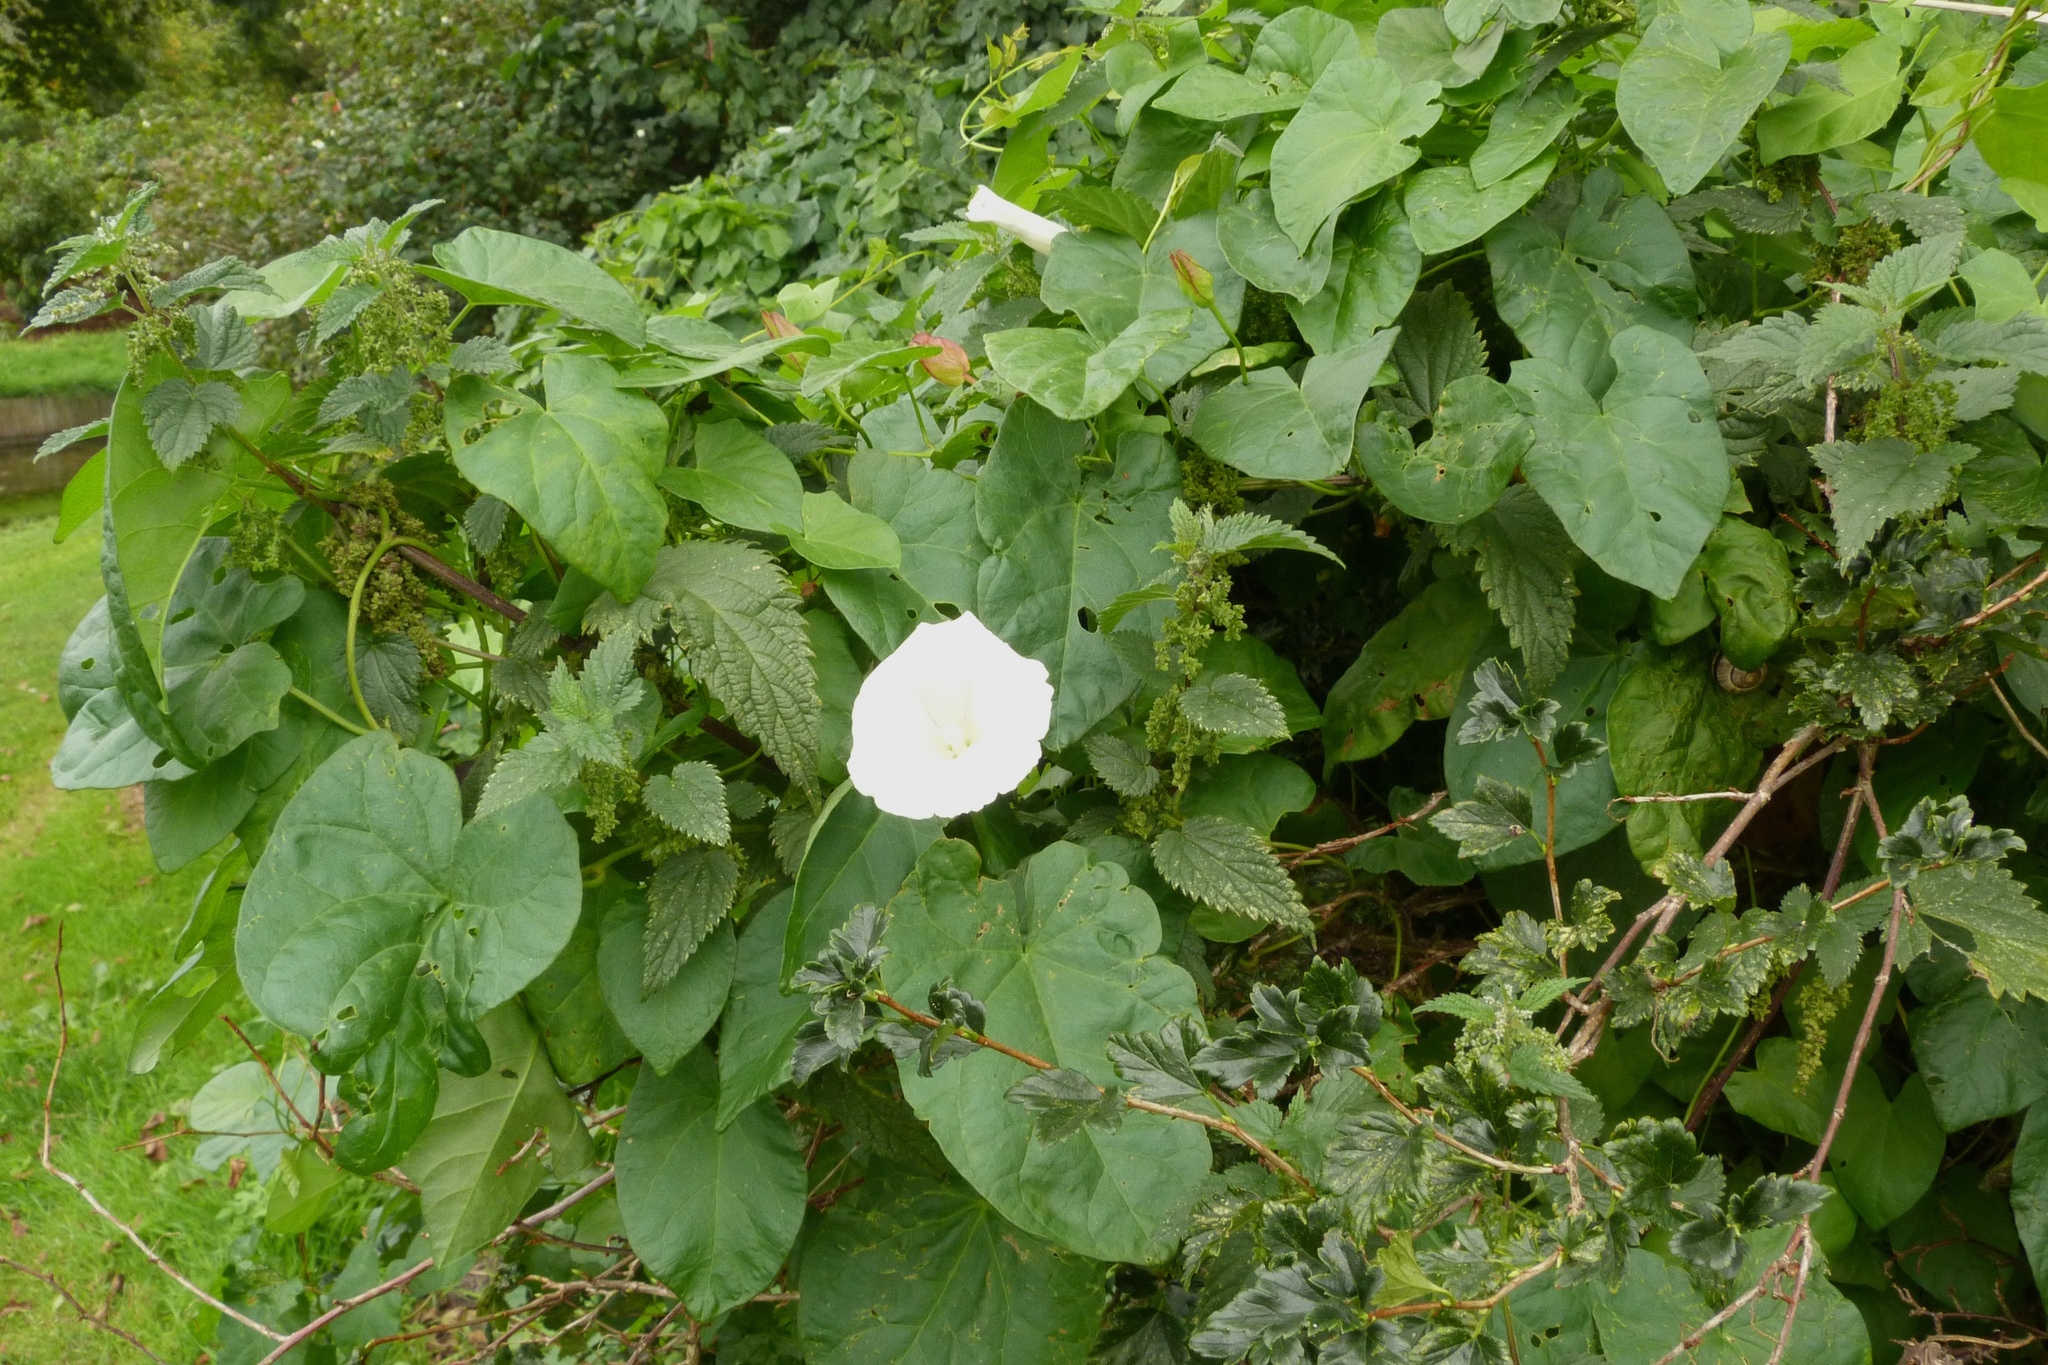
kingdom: Plantae
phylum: Tracheophyta
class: Magnoliopsida
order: Solanales
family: Convolvulaceae
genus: Calystegia
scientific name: Calystegia sepium
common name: Hedge bindweed
